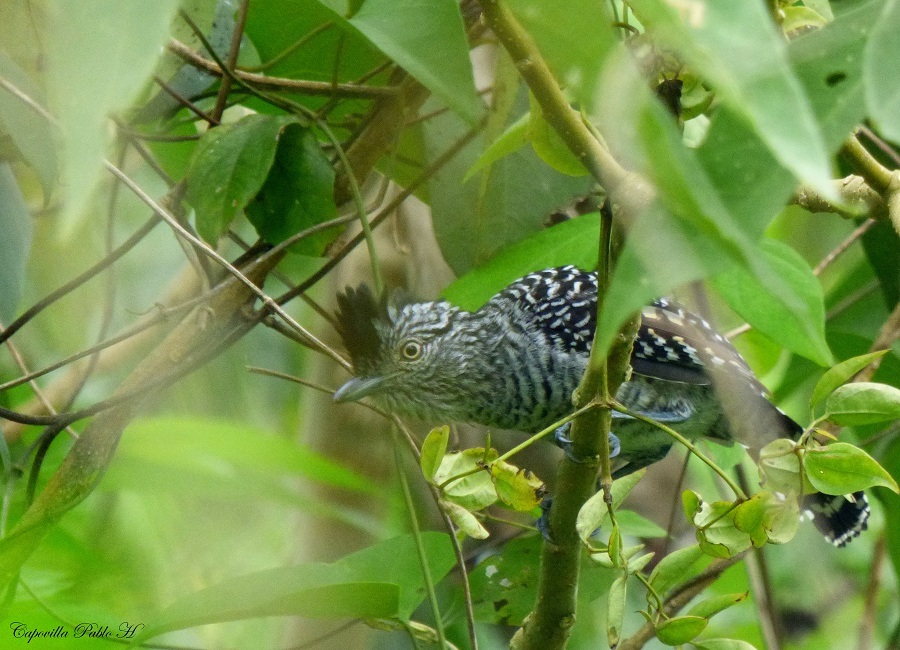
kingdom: Animalia
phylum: Chordata
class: Aves
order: Passeriformes
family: Thamnophilidae
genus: Thamnophilus
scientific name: Thamnophilus doliatus
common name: Barred antshrike
